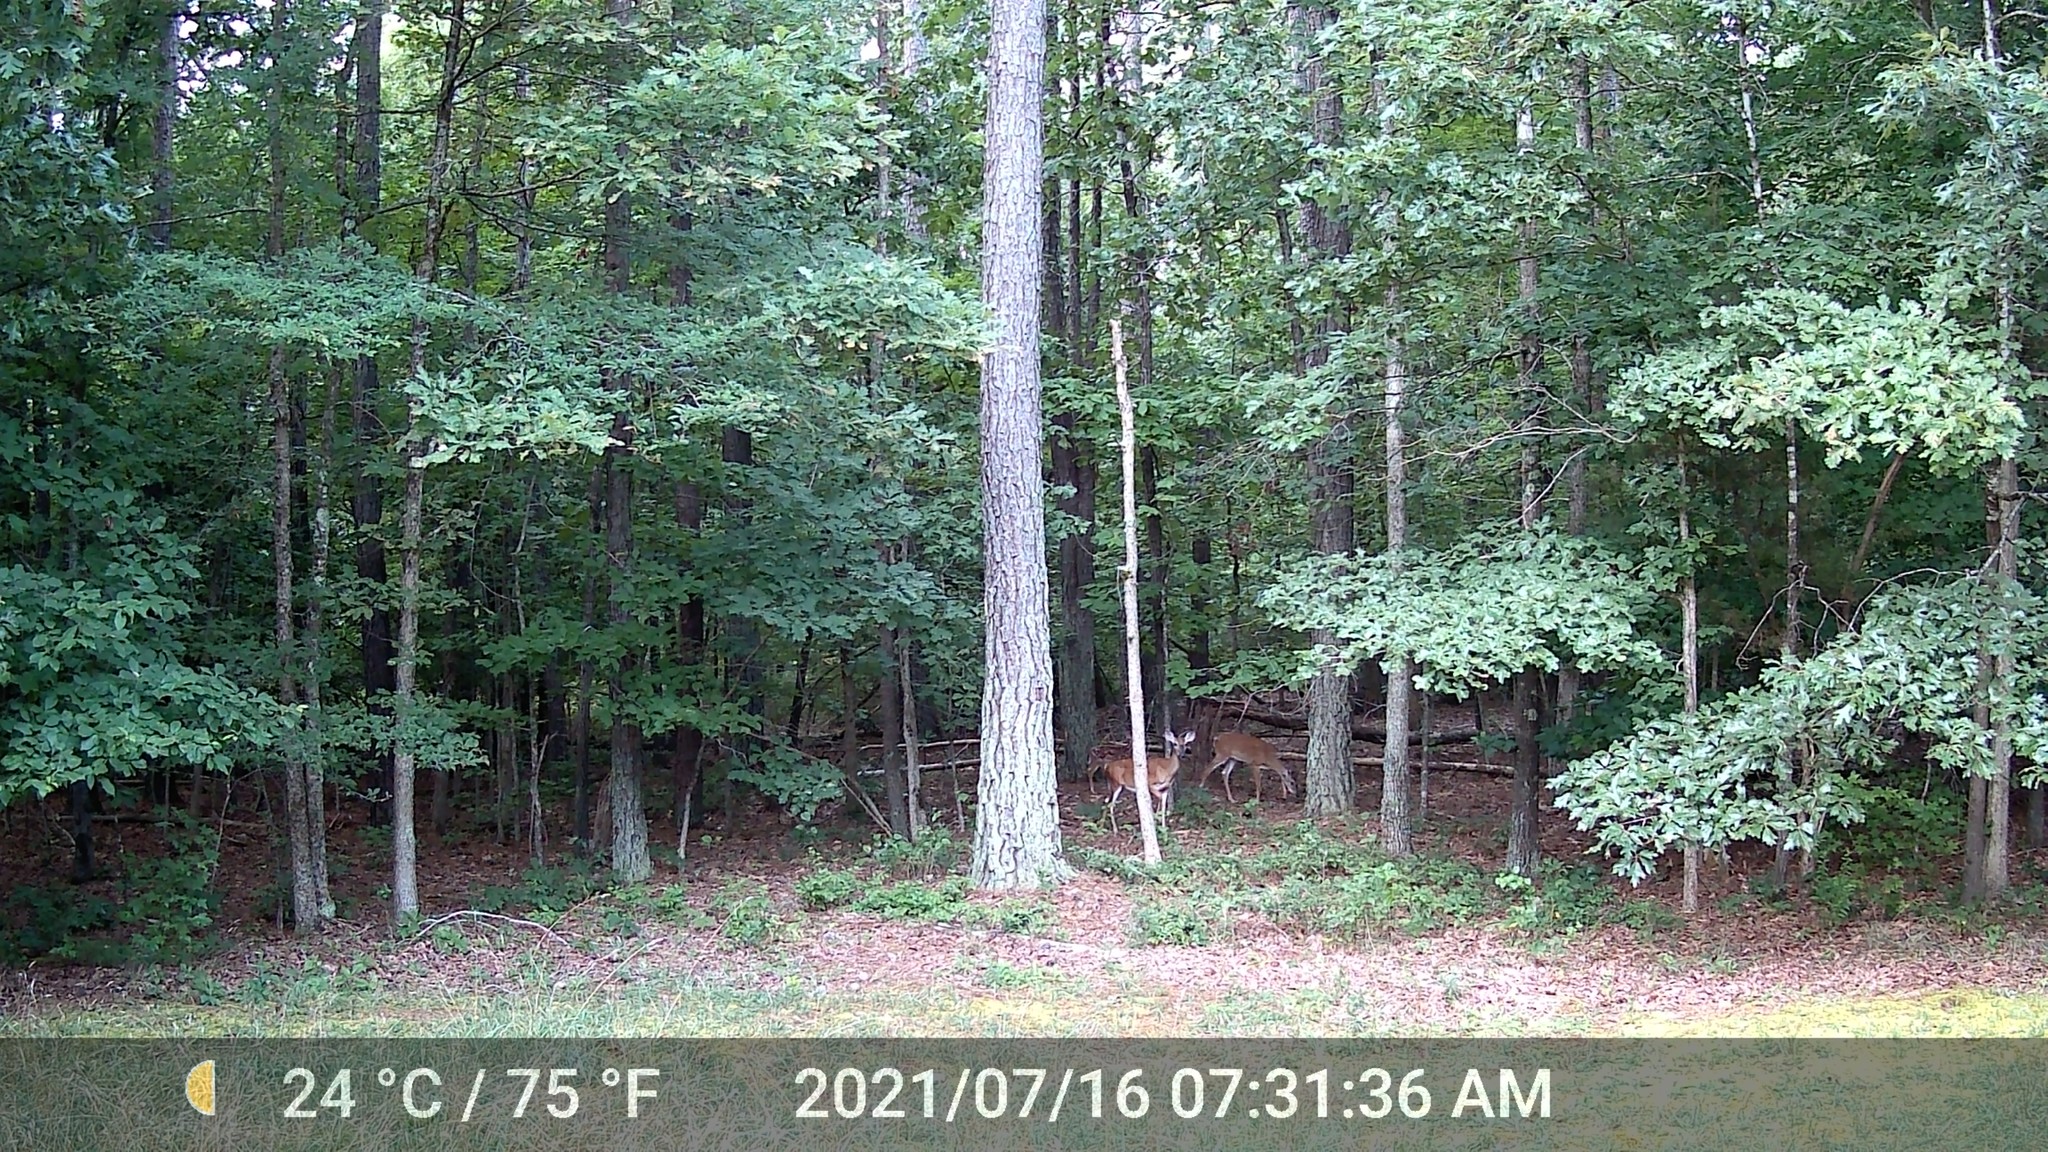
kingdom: Animalia
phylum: Chordata
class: Mammalia
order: Artiodactyla
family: Cervidae
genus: Odocoileus
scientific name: Odocoileus virginianus
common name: White-tailed deer
